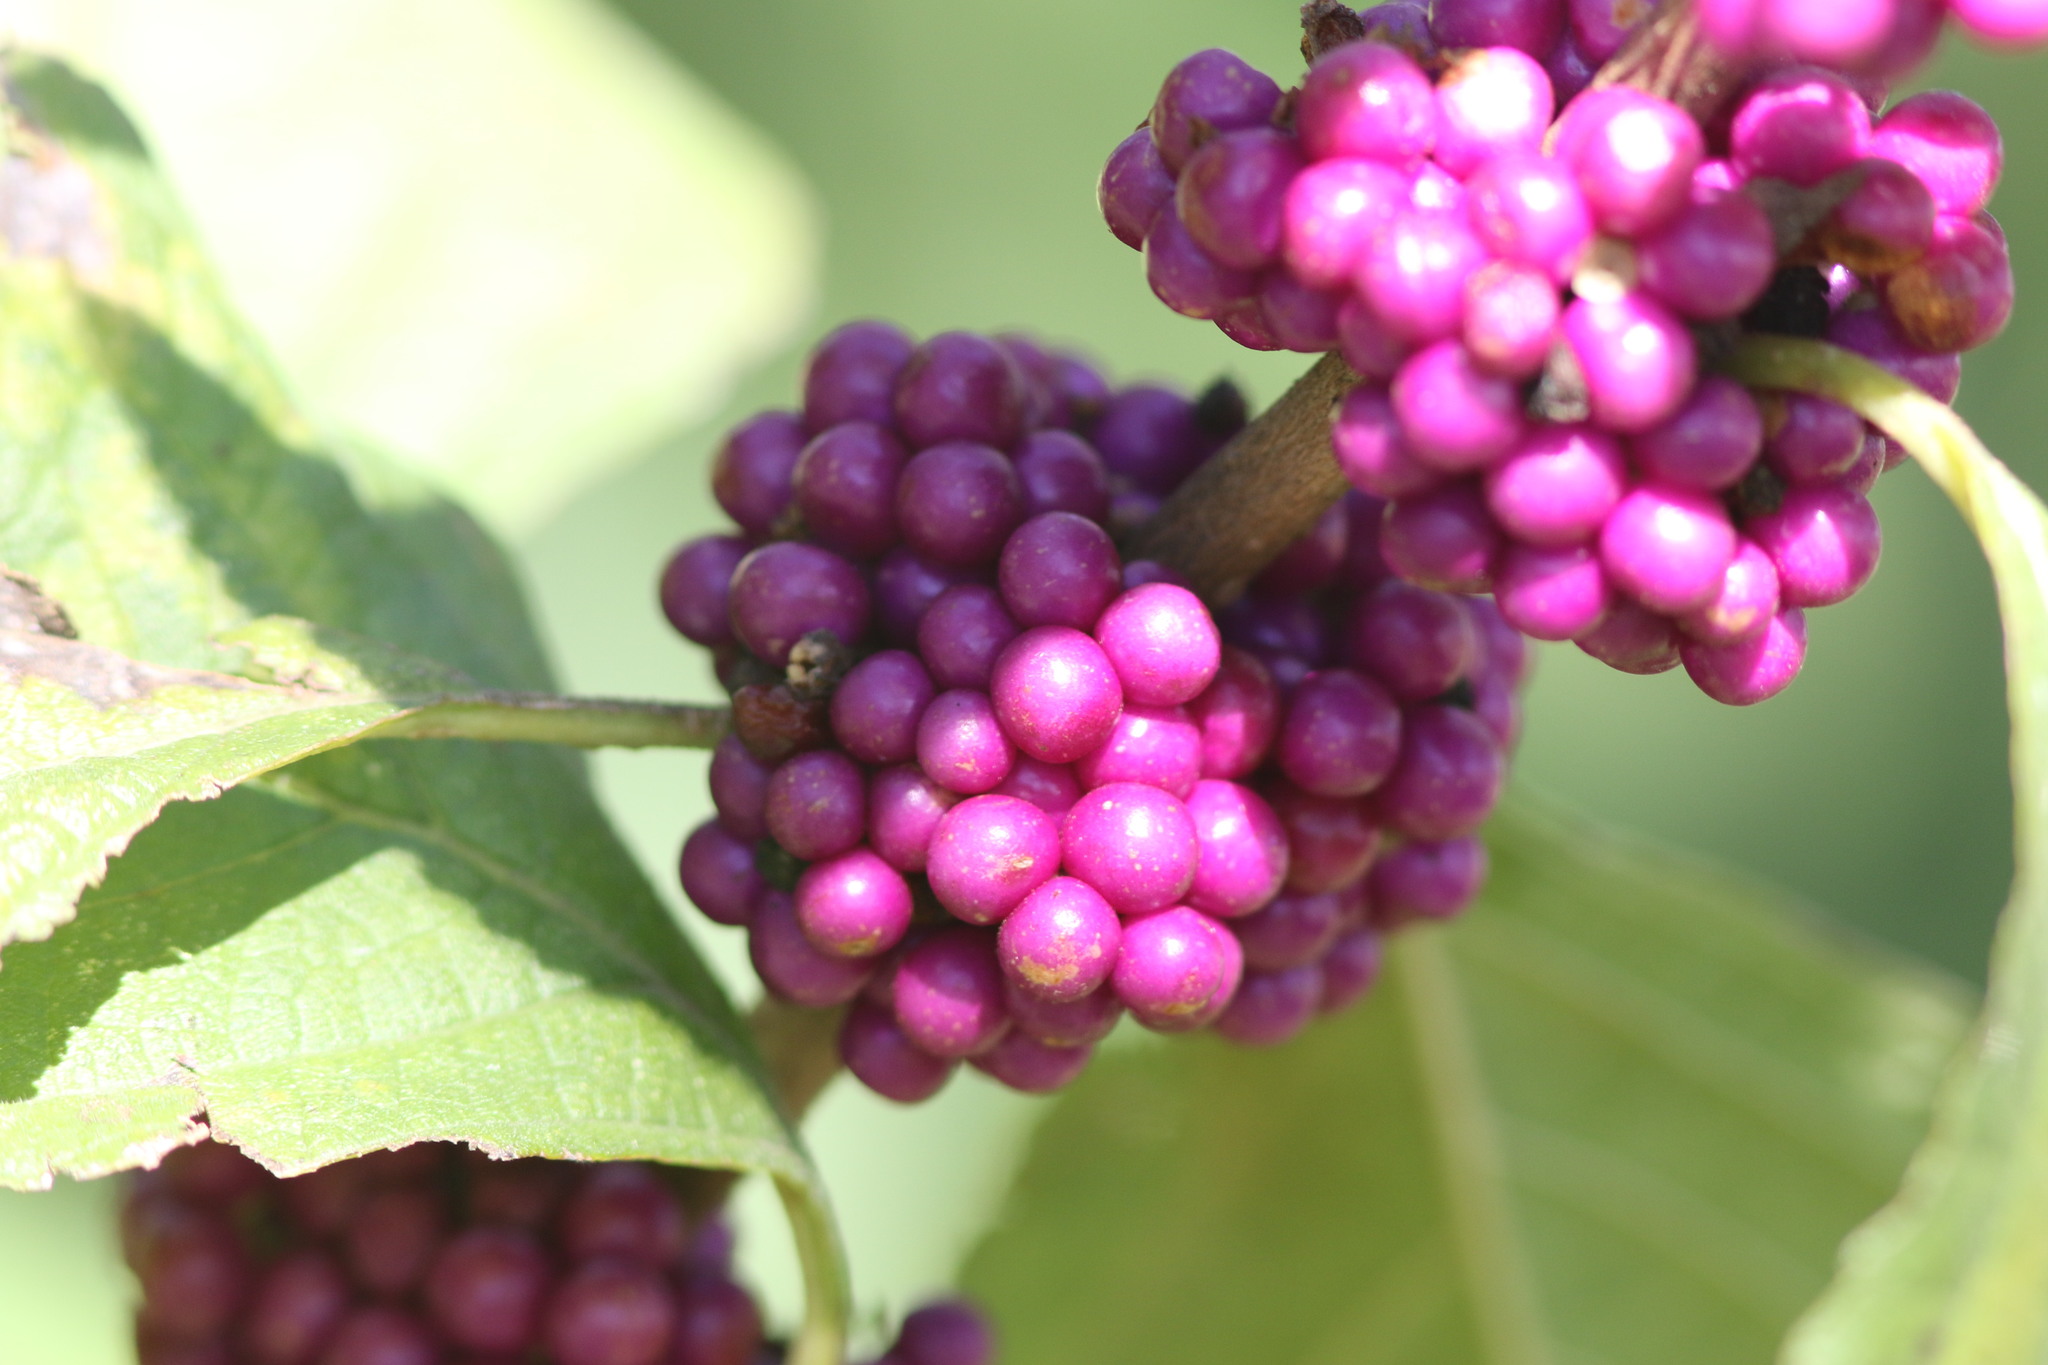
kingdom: Plantae
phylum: Tracheophyta
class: Magnoliopsida
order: Lamiales
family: Lamiaceae
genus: Callicarpa
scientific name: Callicarpa americana
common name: American beautyberry
